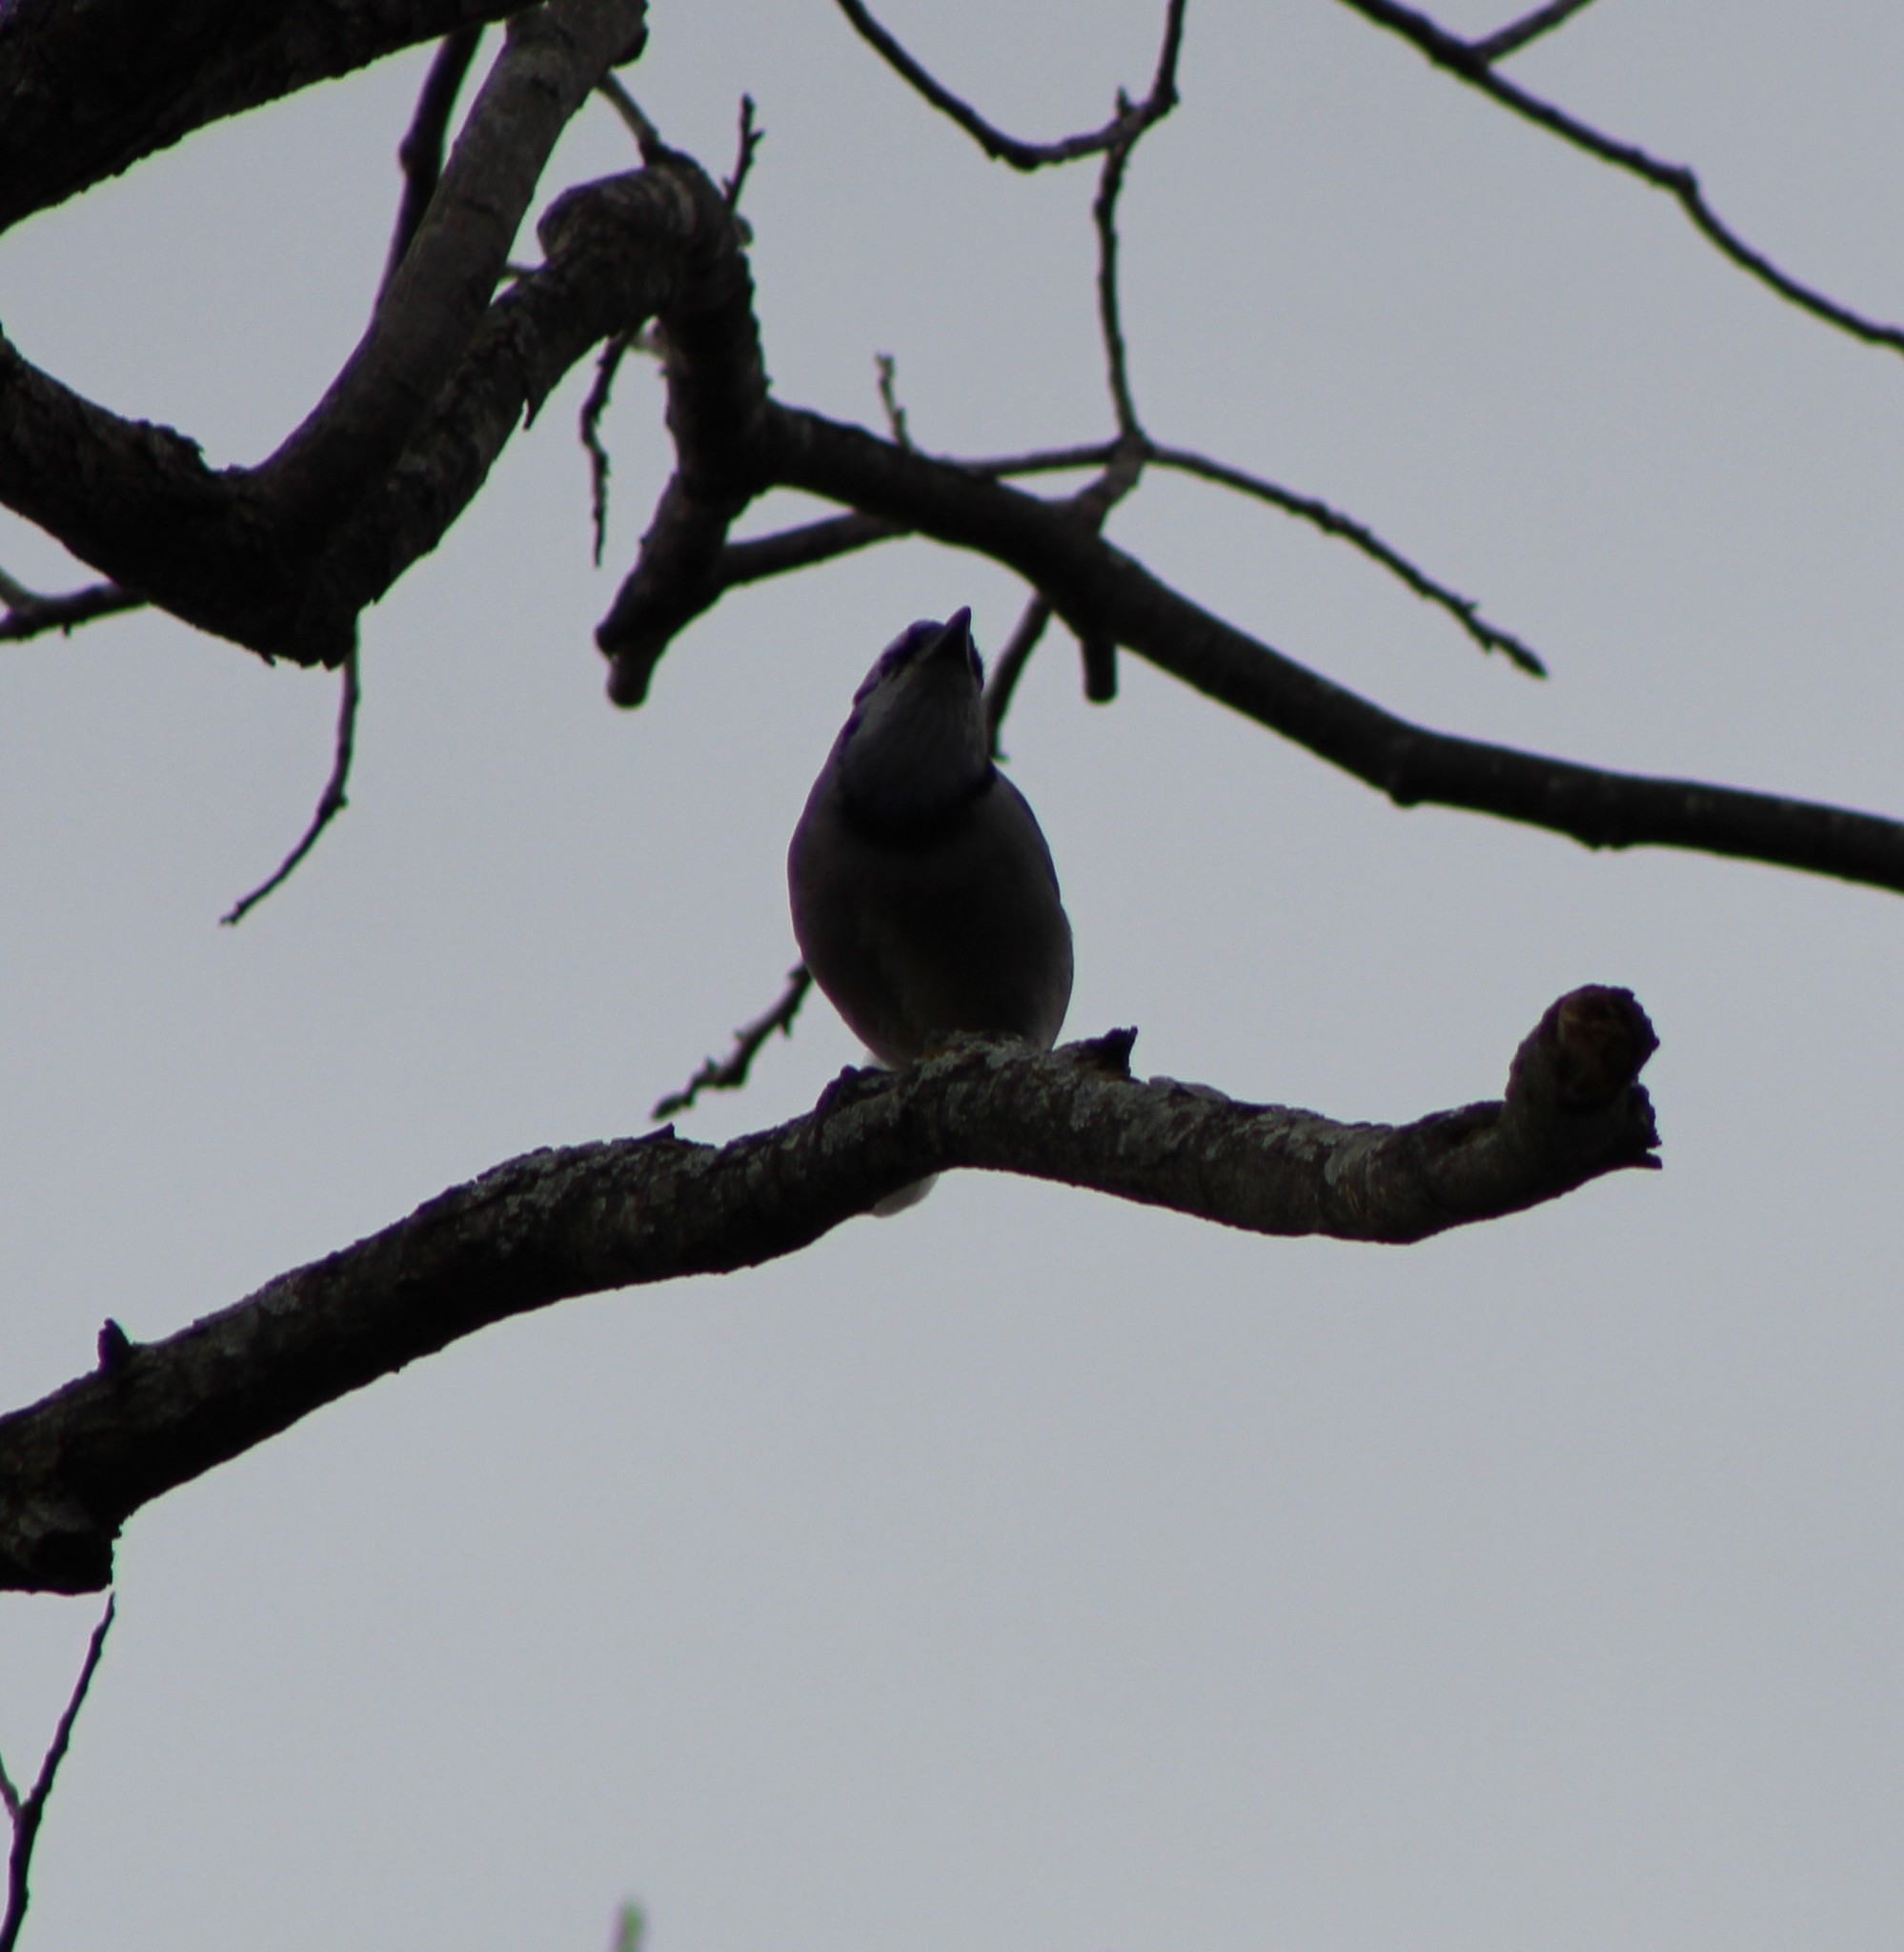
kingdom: Animalia
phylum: Chordata
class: Aves
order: Passeriformes
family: Corvidae
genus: Cyanocitta
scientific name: Cyanocitta cristata
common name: Blue jay
